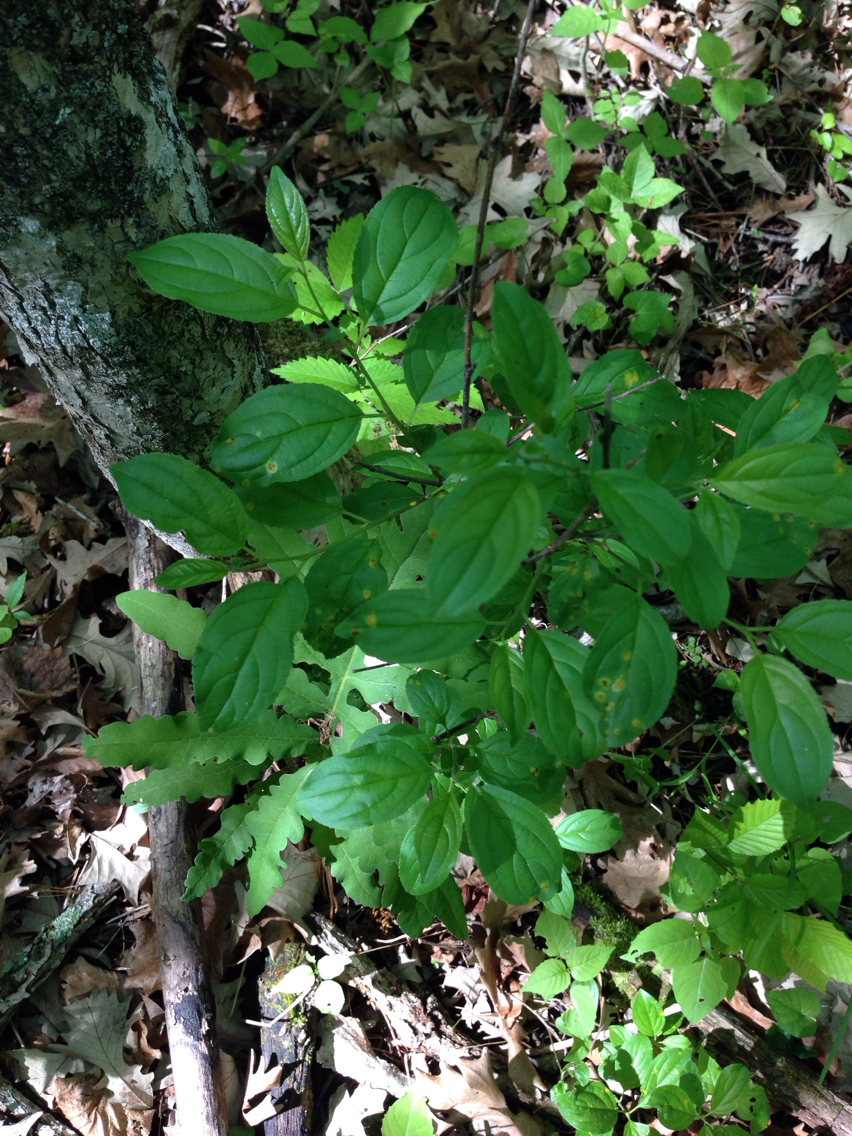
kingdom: Plantae
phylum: Tracheophyta
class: Magnoliopsida
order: Rosales
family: Rhamnaceae
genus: Rhamnus
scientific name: Rhamnus cathartica
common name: Common buckthorn
